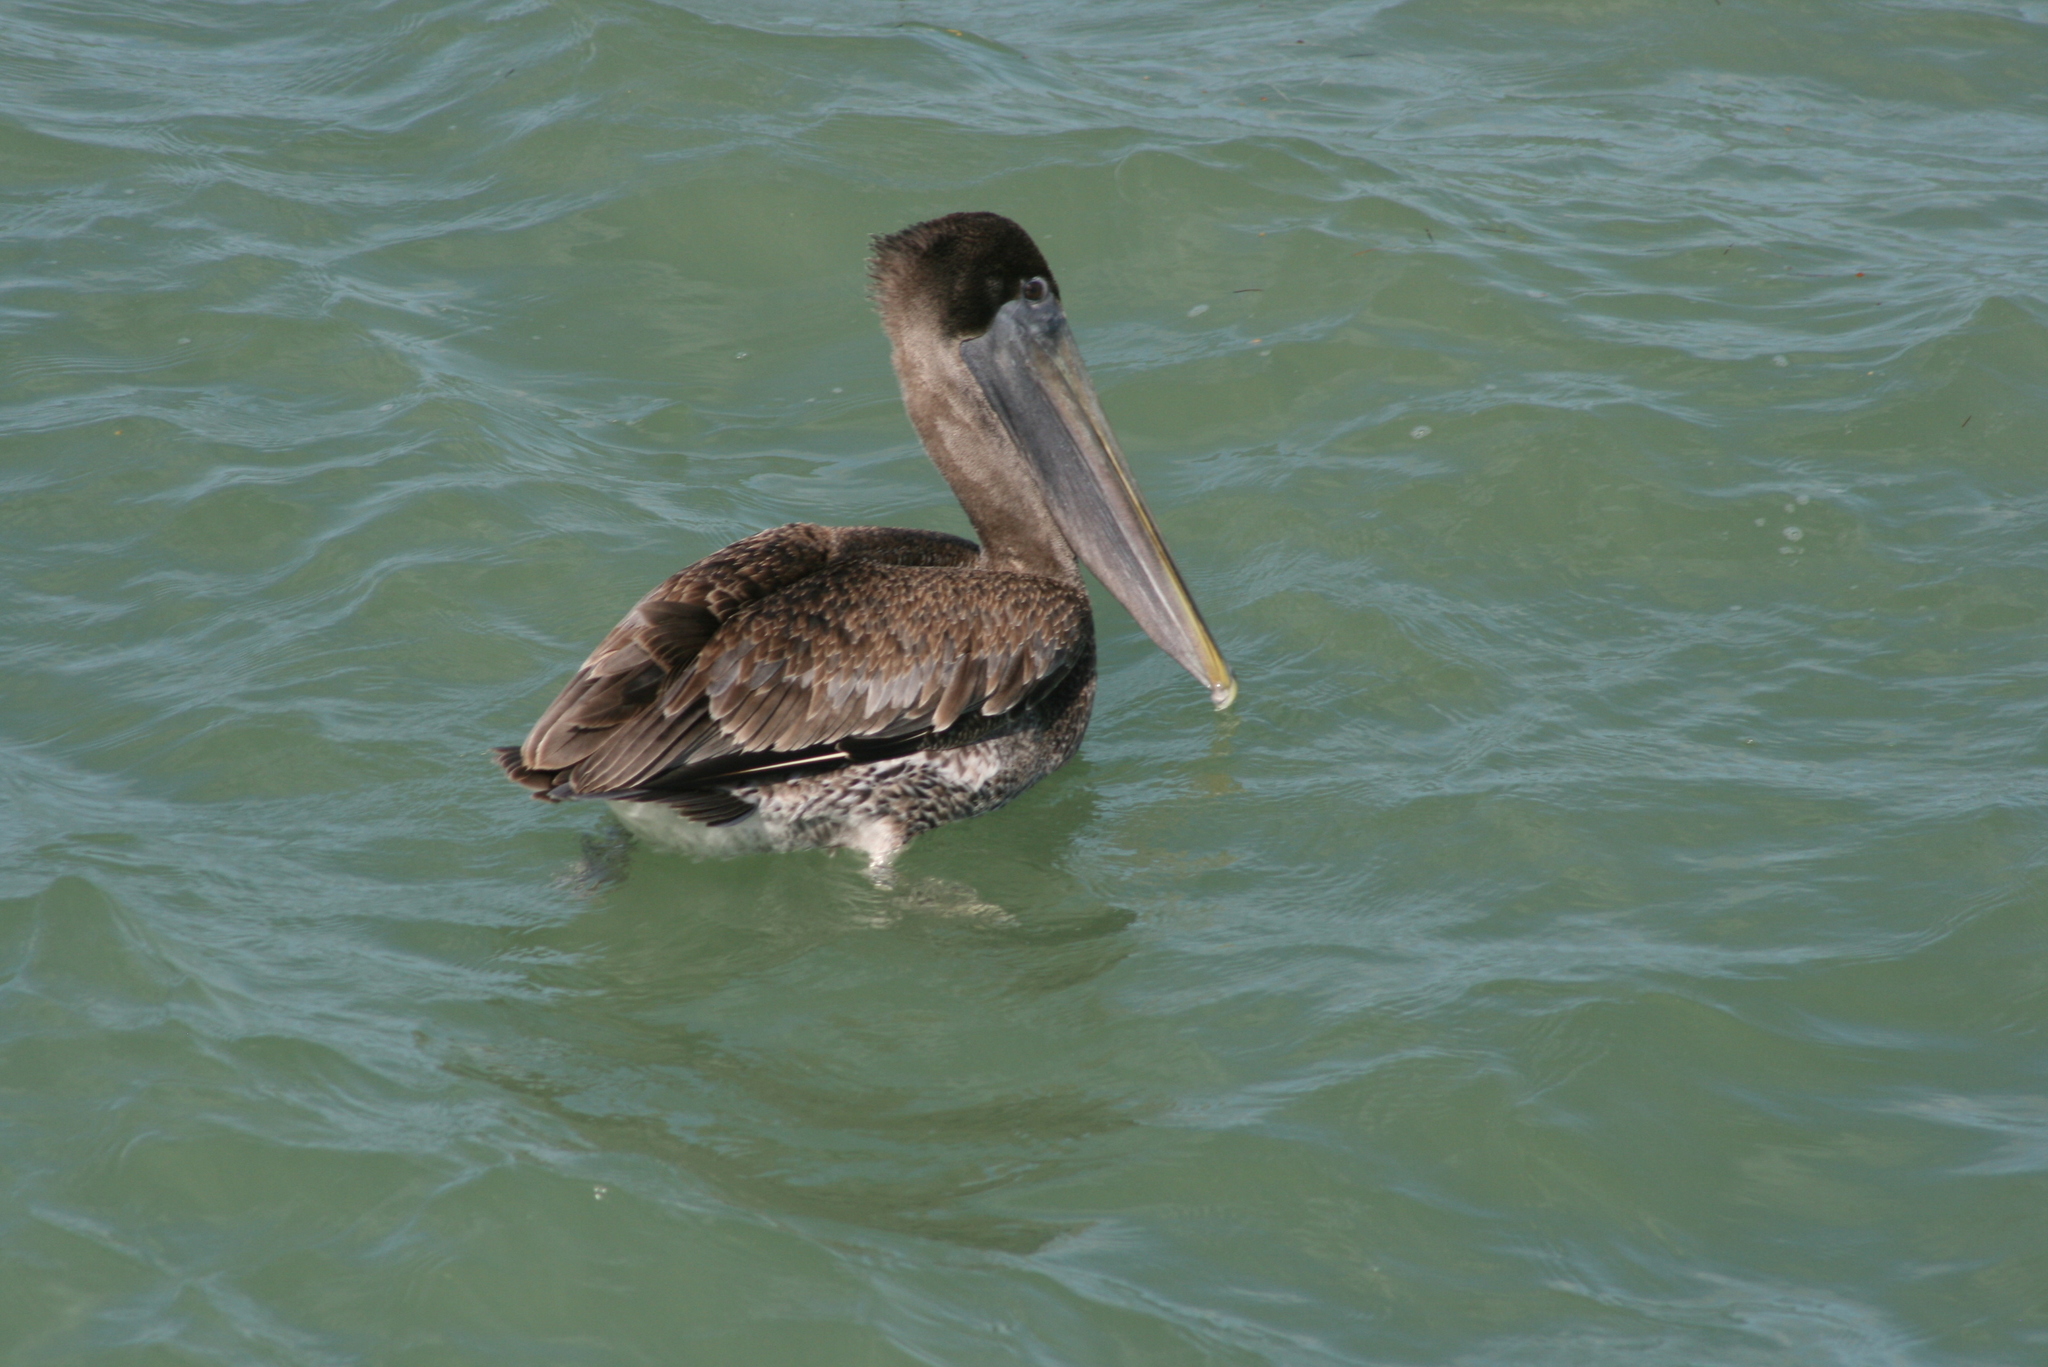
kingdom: Animalia
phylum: Chordata
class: Aves
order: Pelecaniformes
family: Pelecanidae
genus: Pelecanus
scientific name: Pelecanus occidentalis
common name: Brown pelican
